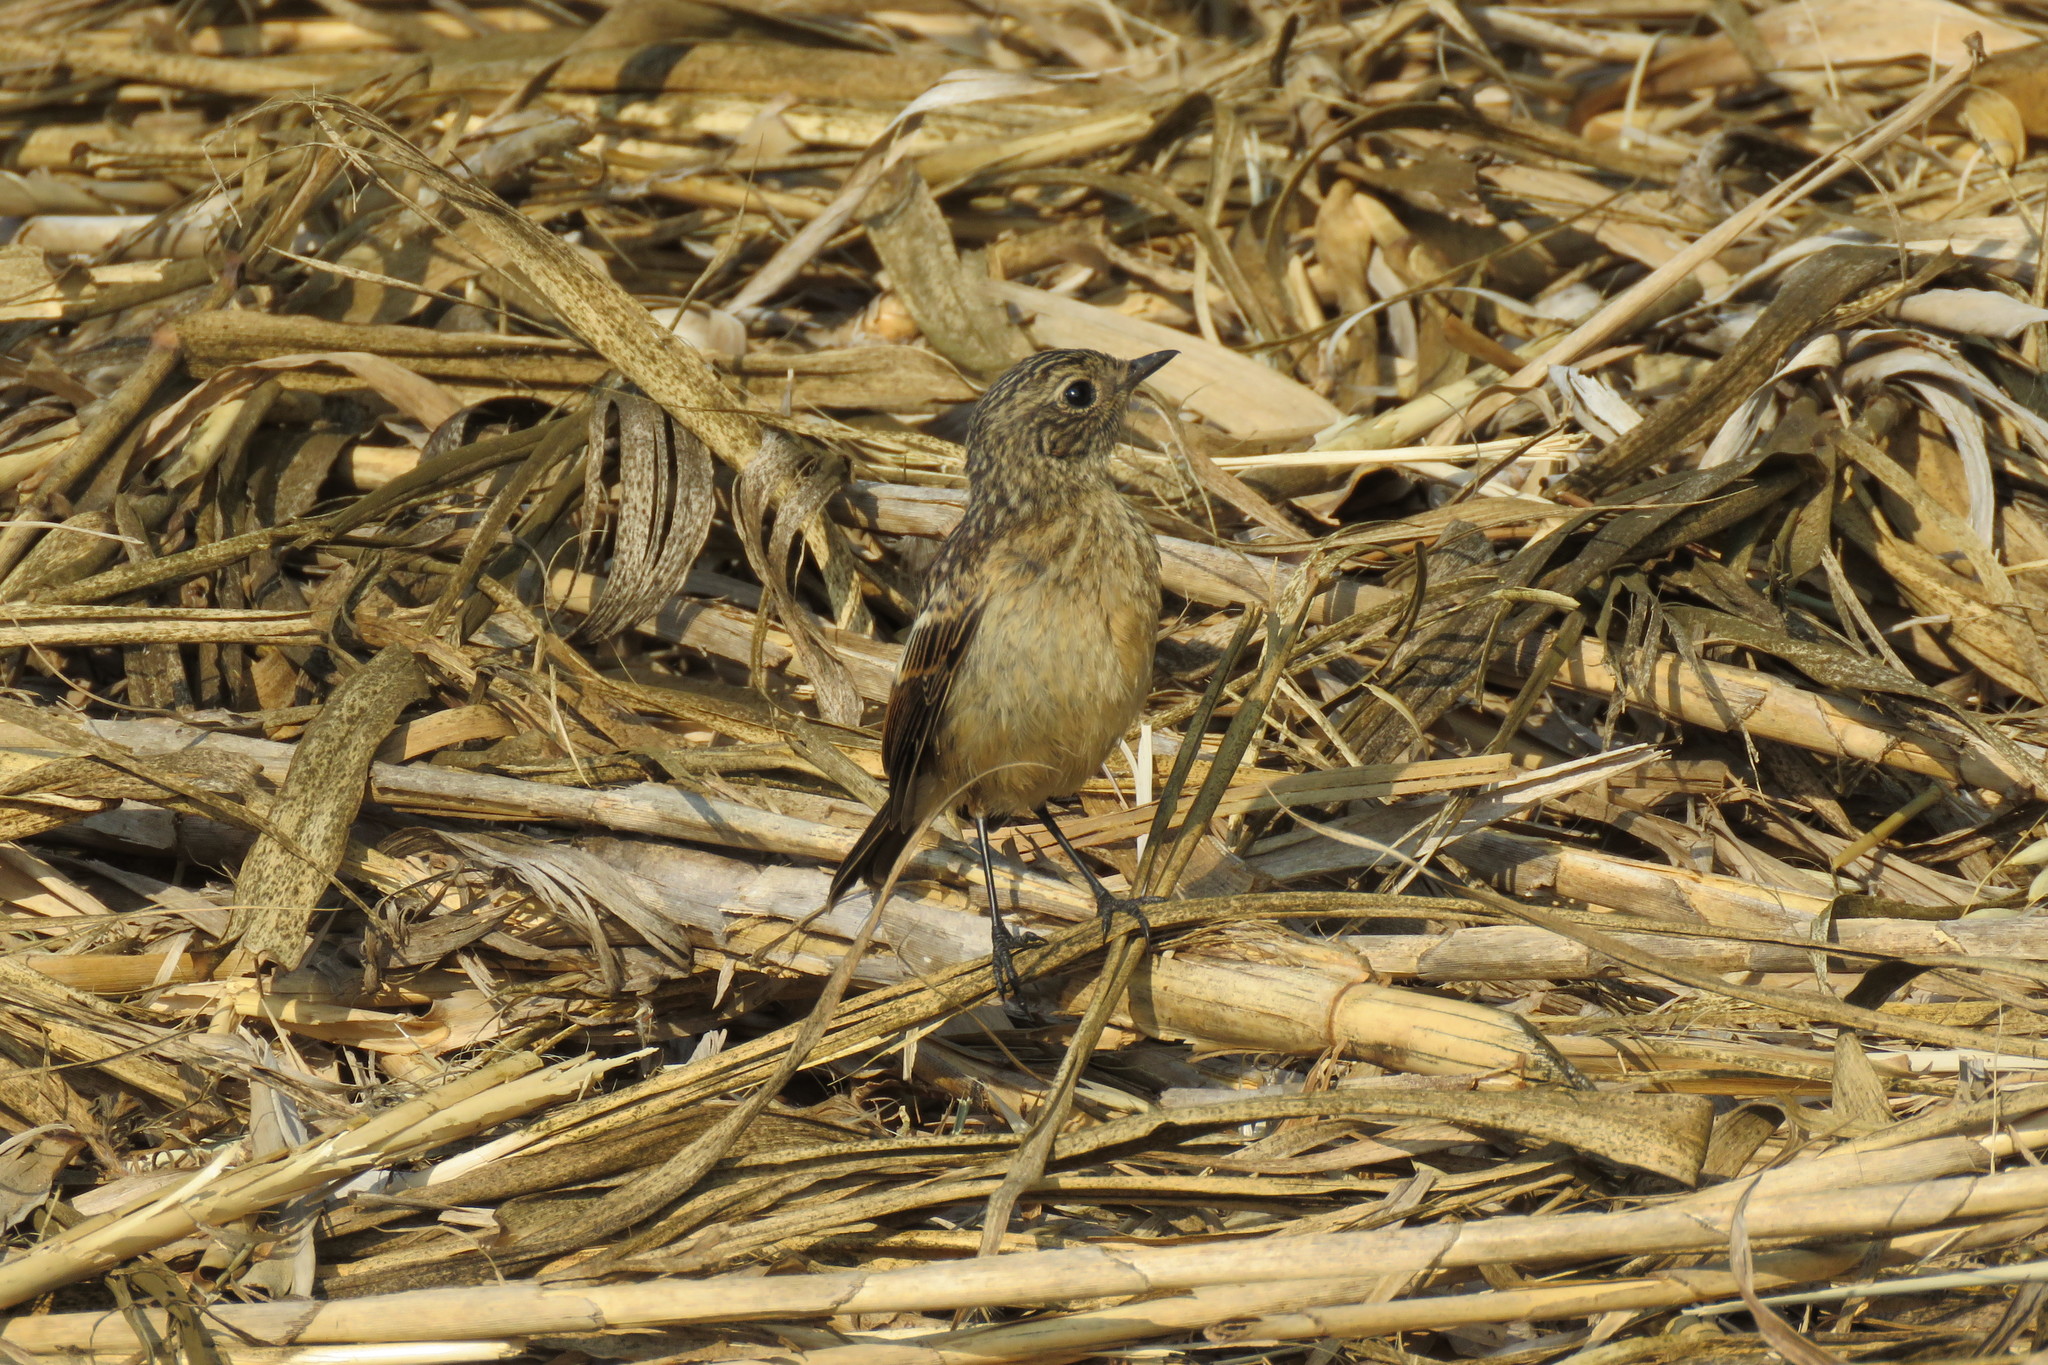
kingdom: Animalia
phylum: Chordata
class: Aves
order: Passeriformes
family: Muscicapidae
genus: Saxicola
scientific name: Saxicola rubicola
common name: European stonechat
